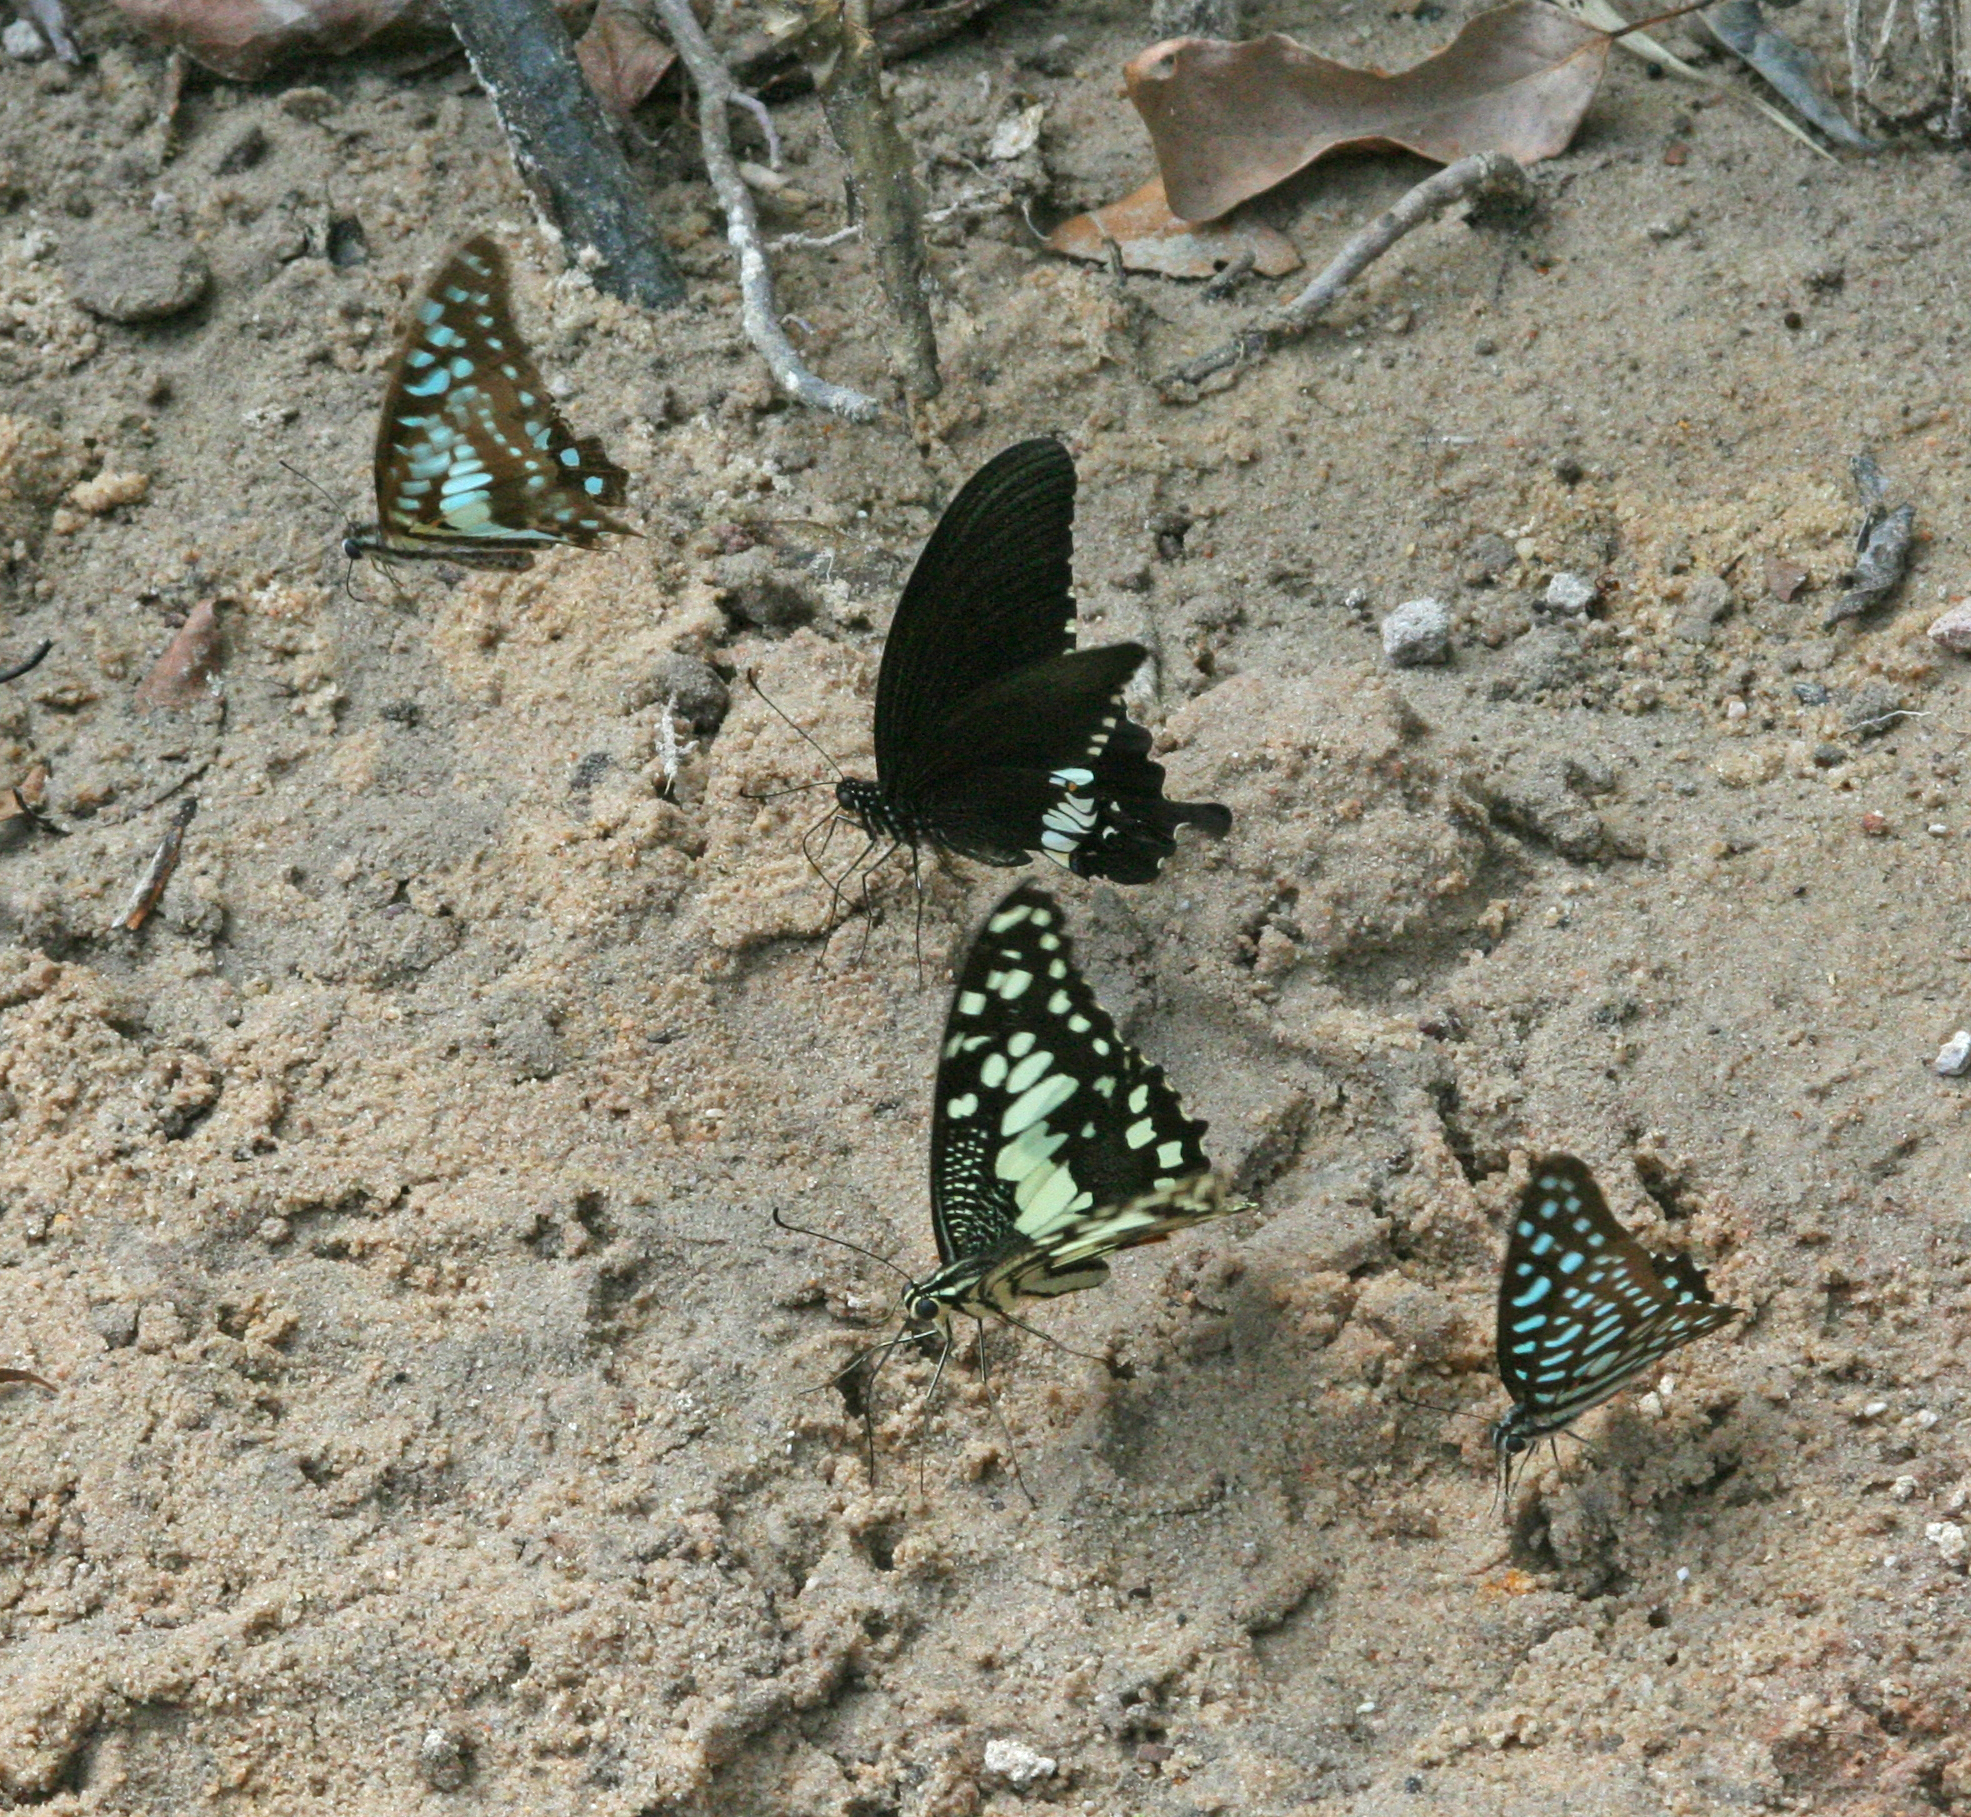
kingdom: Animalia
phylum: Arthropoda
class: Insecta
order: Lepidoptera
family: Papilionidae
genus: Graphium
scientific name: Graphium doson
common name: Common jay
